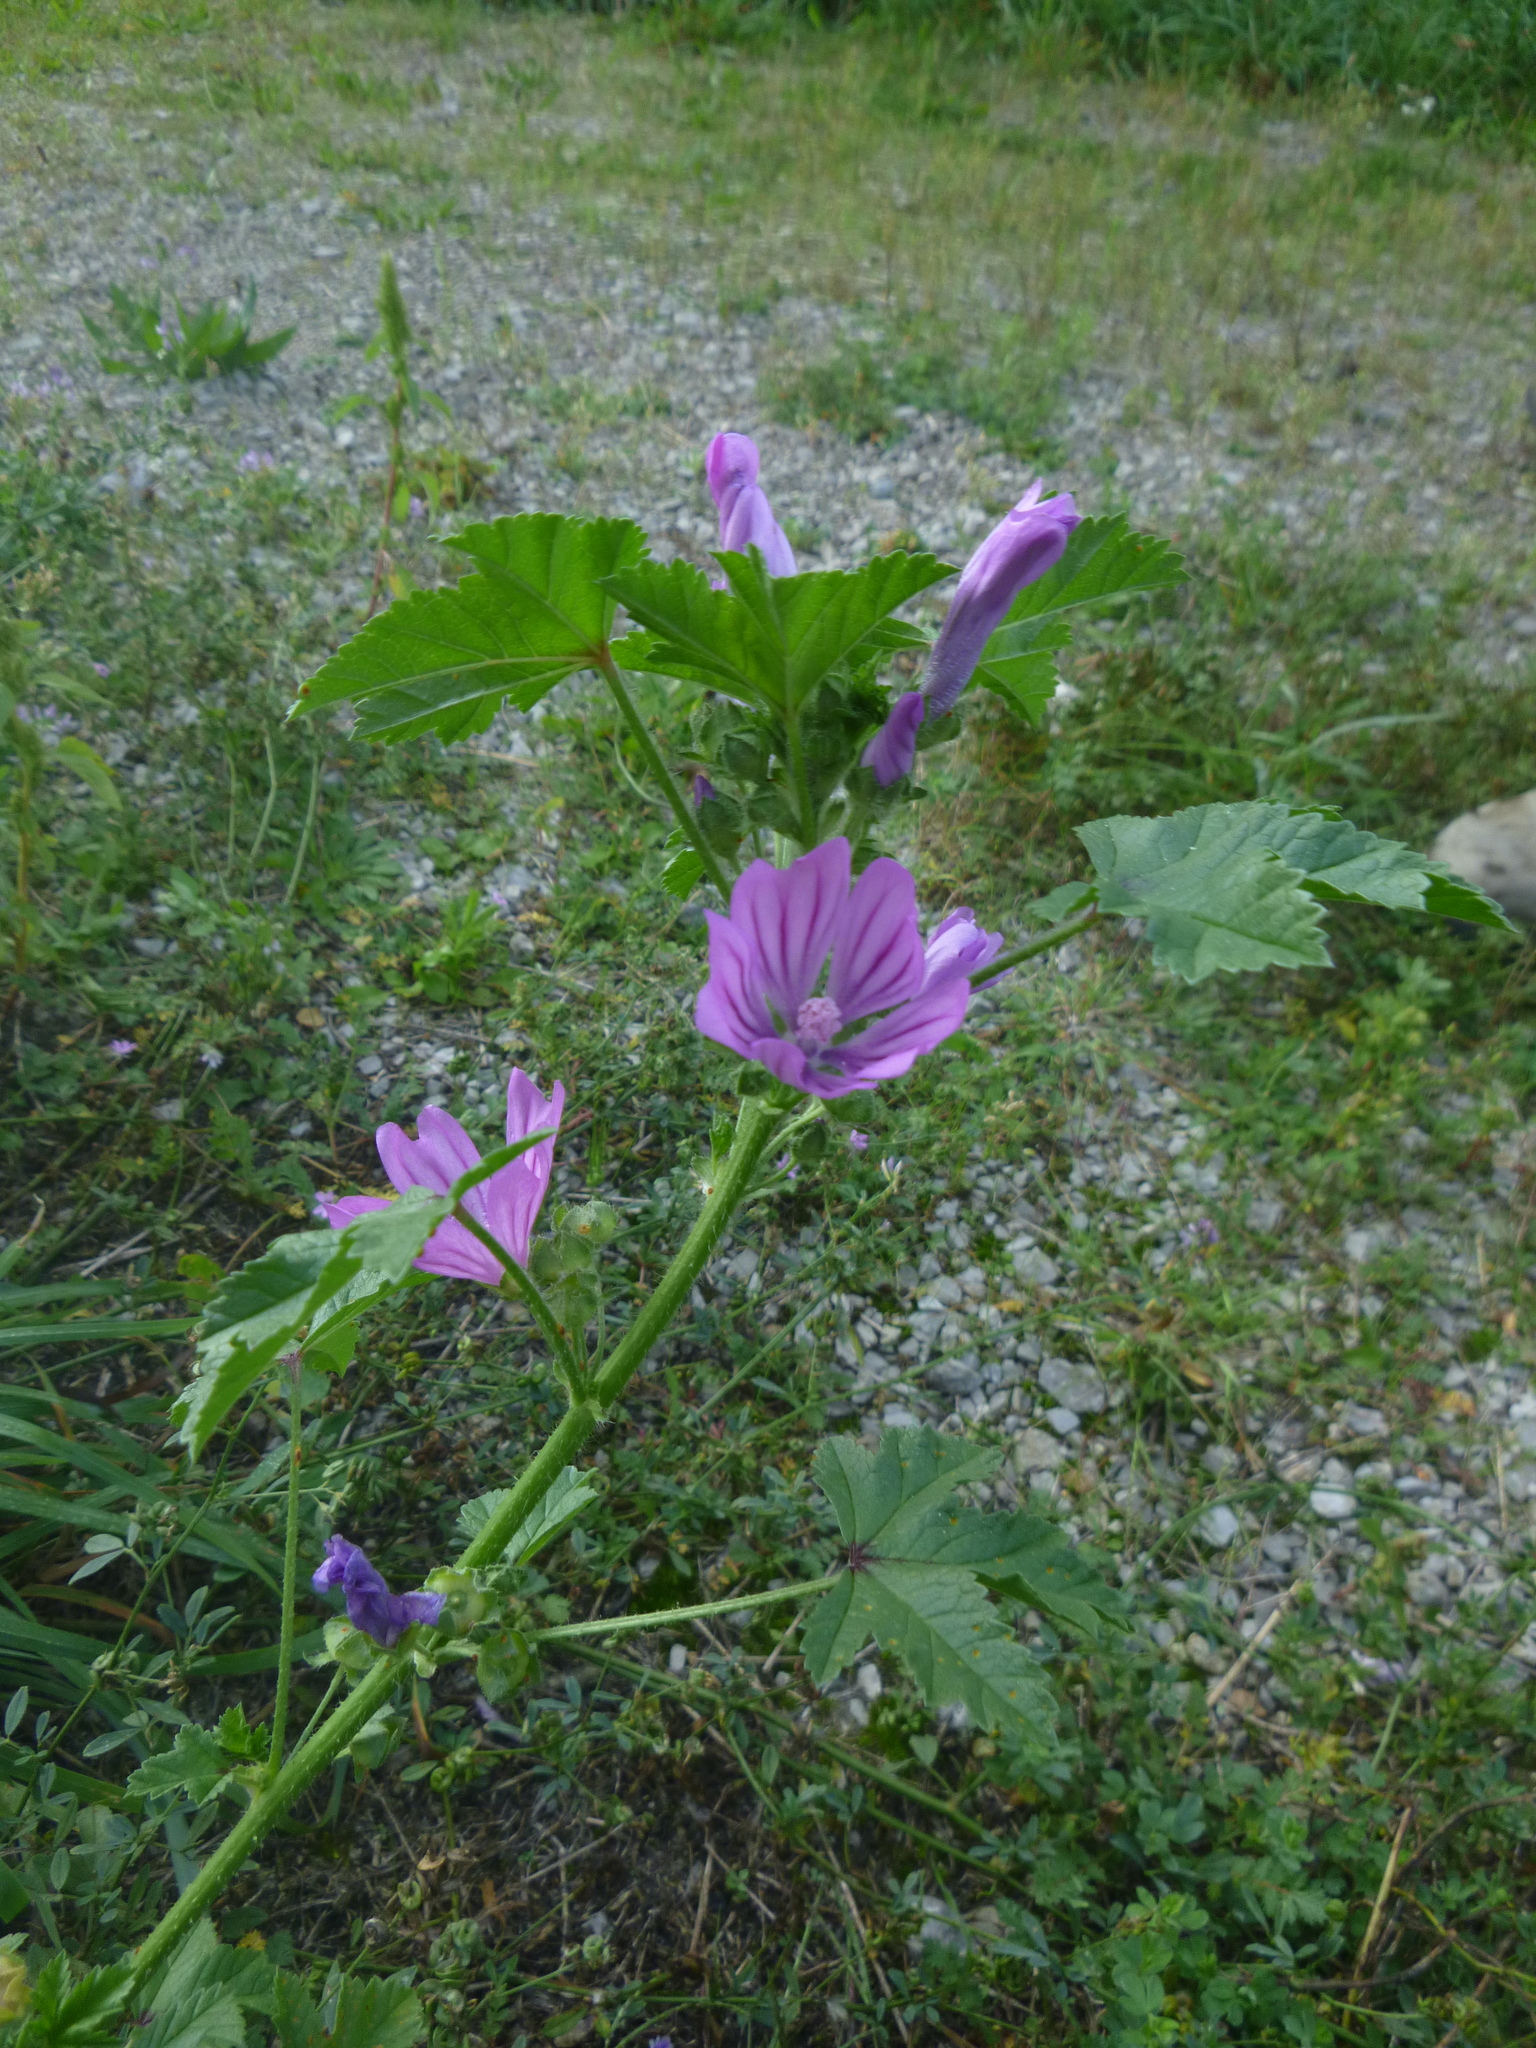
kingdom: Plantae
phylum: Tracheophyta
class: Magnoliopsida
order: Malvales
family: Malvaceae
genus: Malva
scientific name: Malva sylvestris
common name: Common mallow
